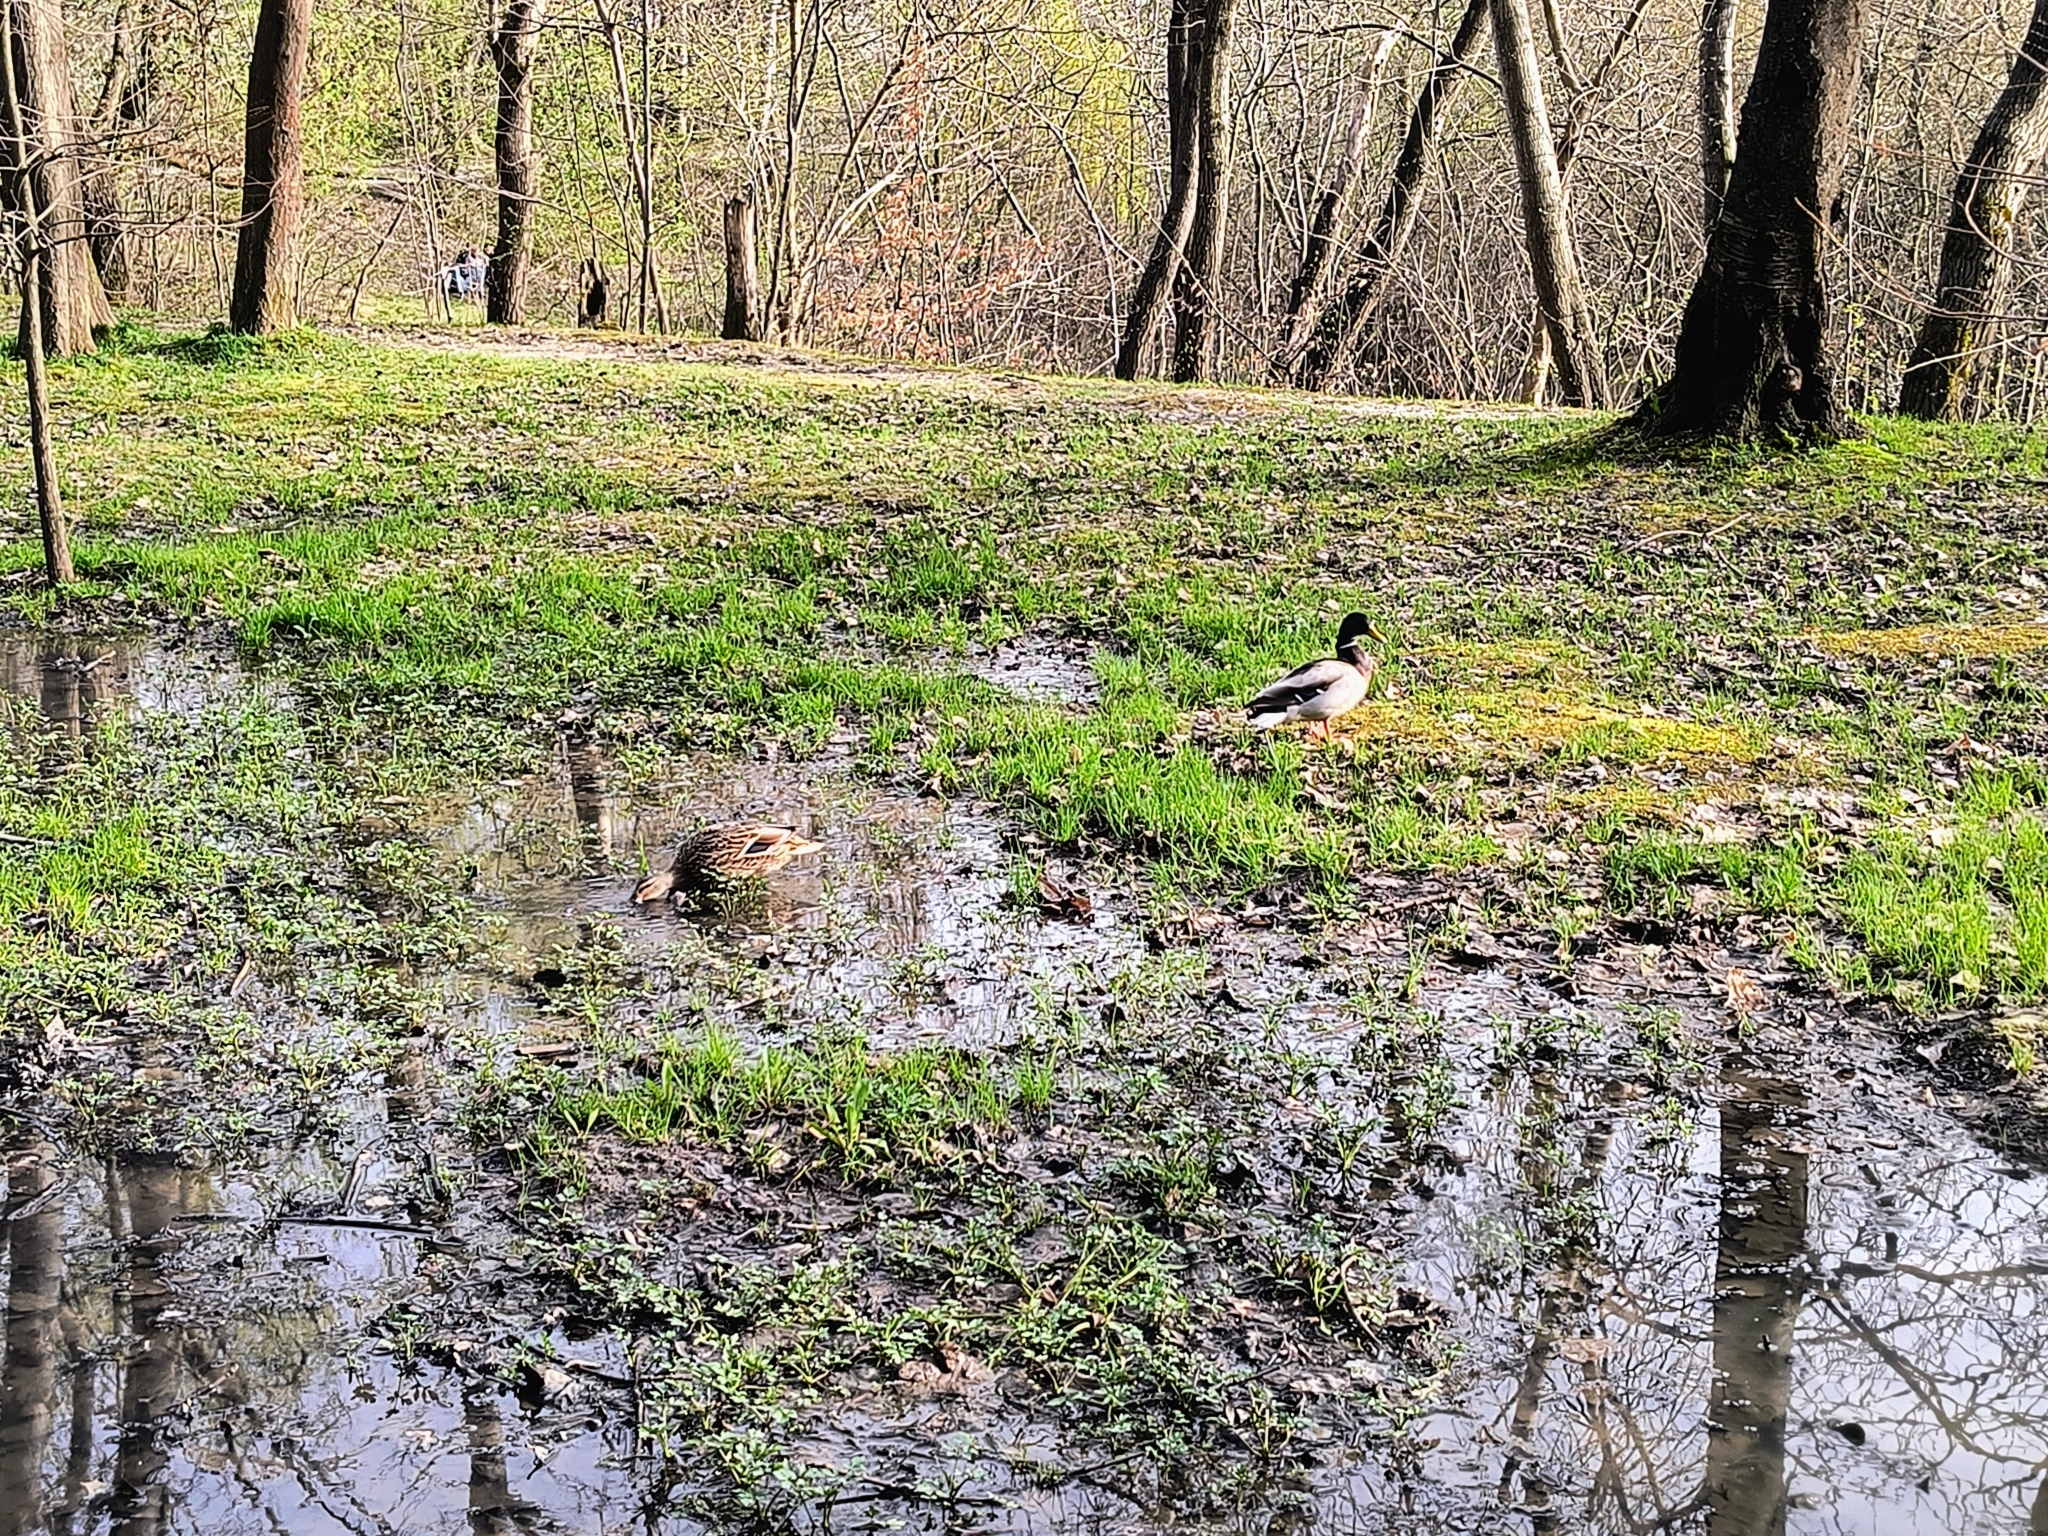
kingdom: Animalia
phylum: Chordata
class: Aves
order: Anseriformes
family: Anatidae
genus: Anas
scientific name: Anas platyrhynchos
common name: Mallard
